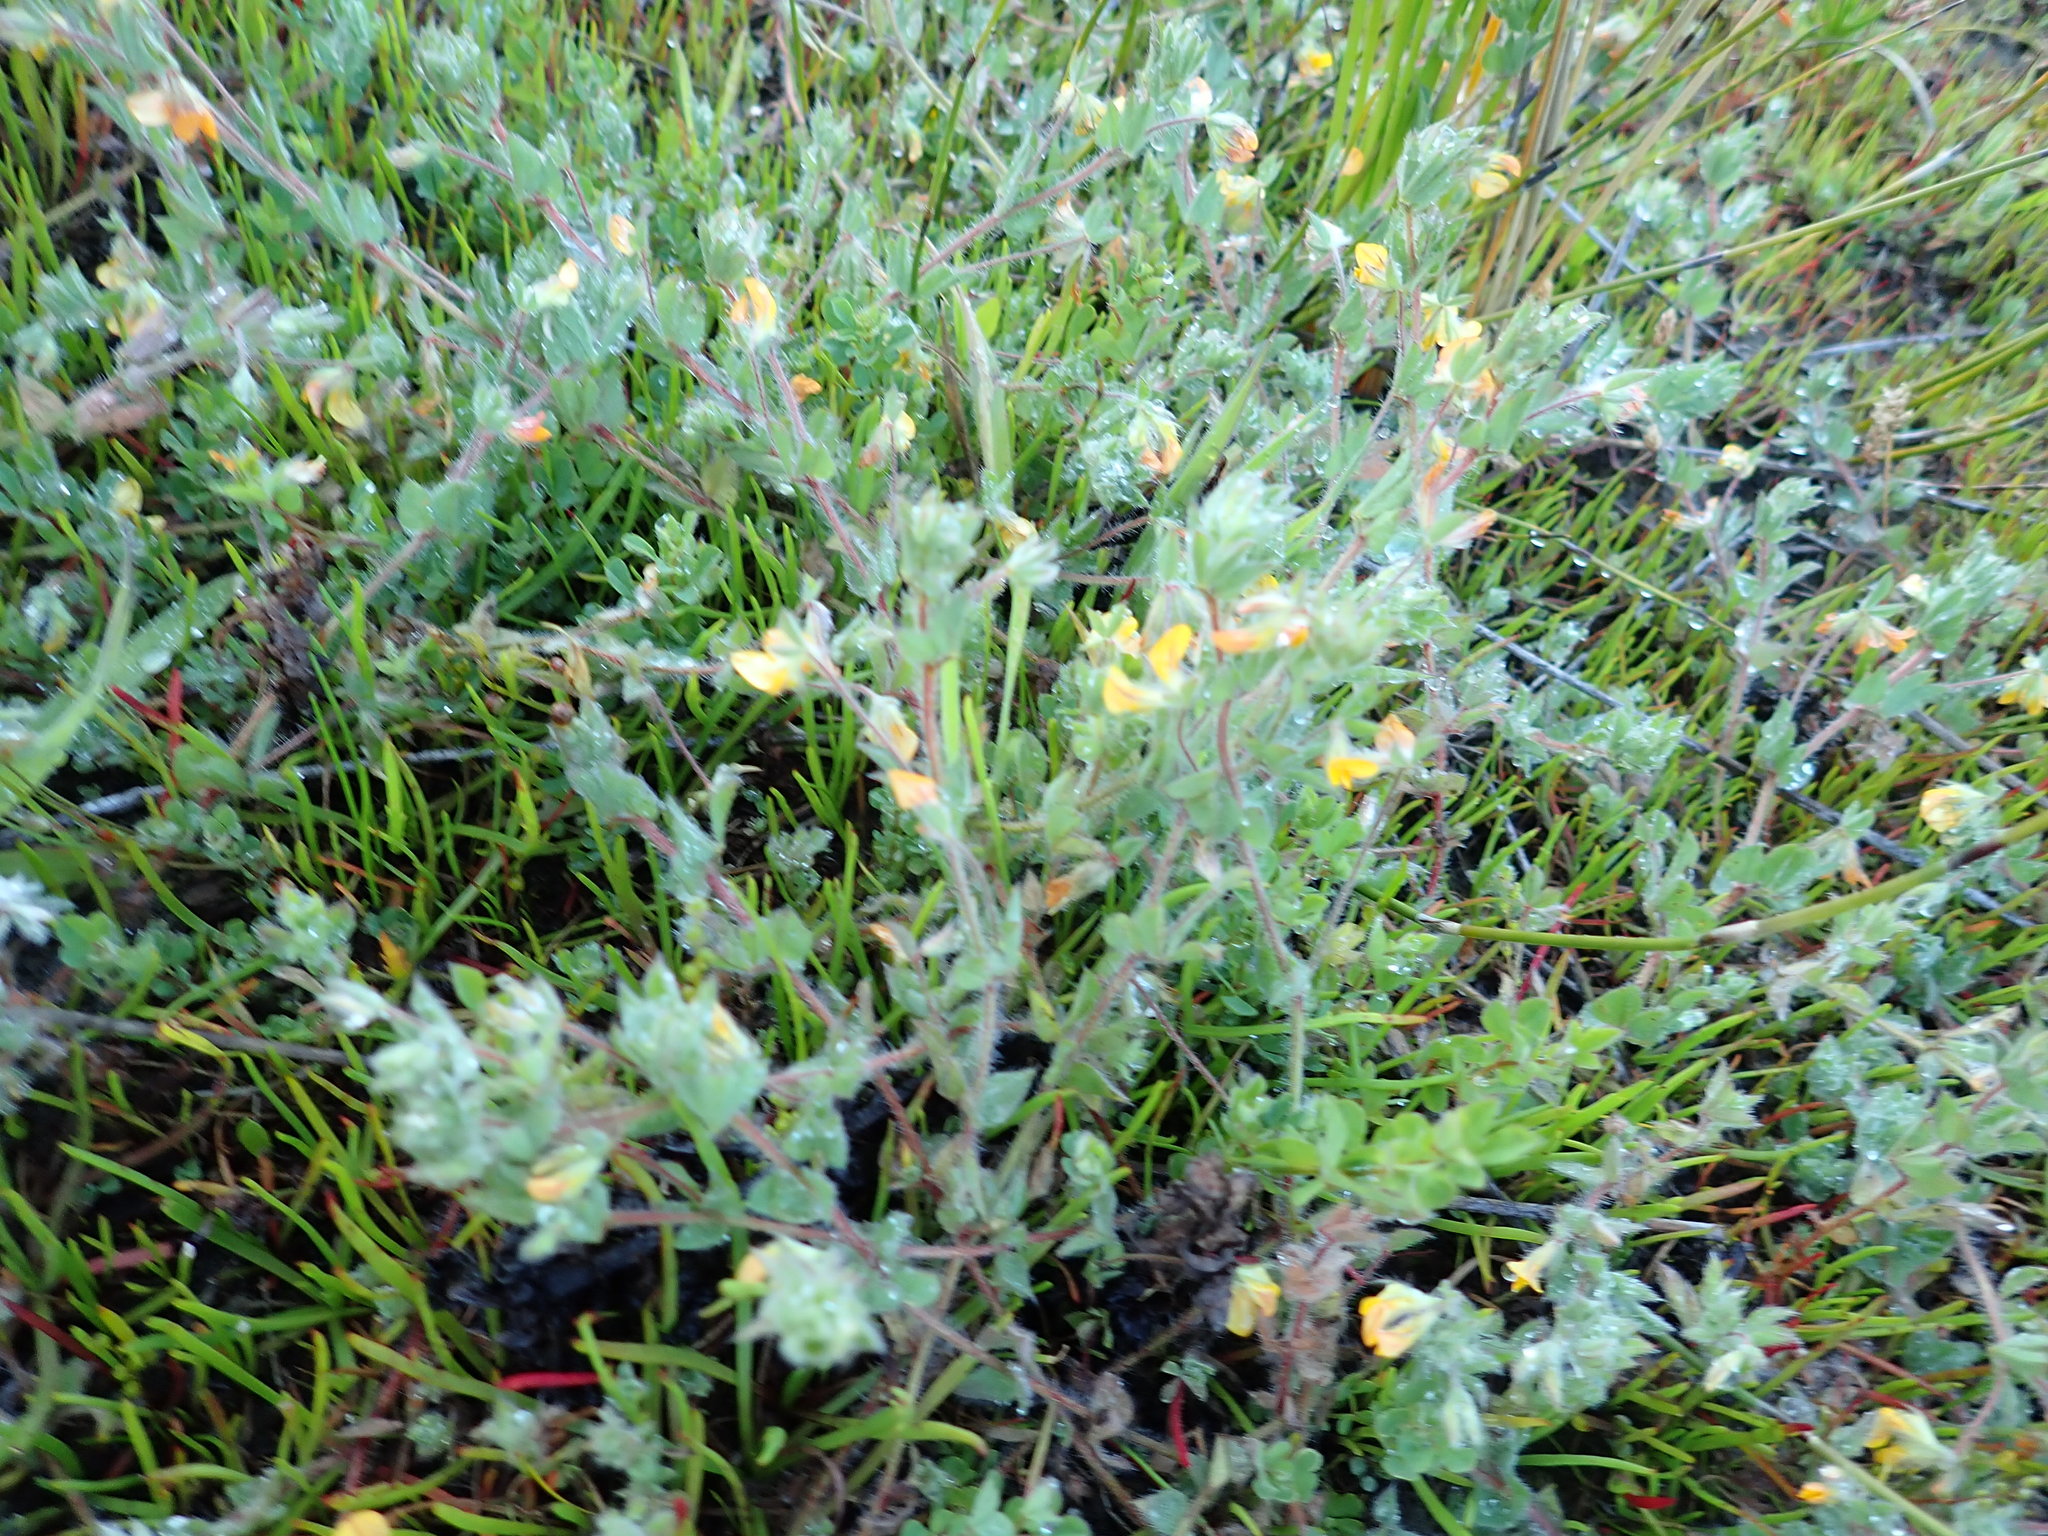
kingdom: Plantae
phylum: Tracheophyta
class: Magnoliopsida
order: Fabales
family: Fabaceae
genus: Lotus
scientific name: Lotus subbiflorus
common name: Hairy bird's-foot trefoil
